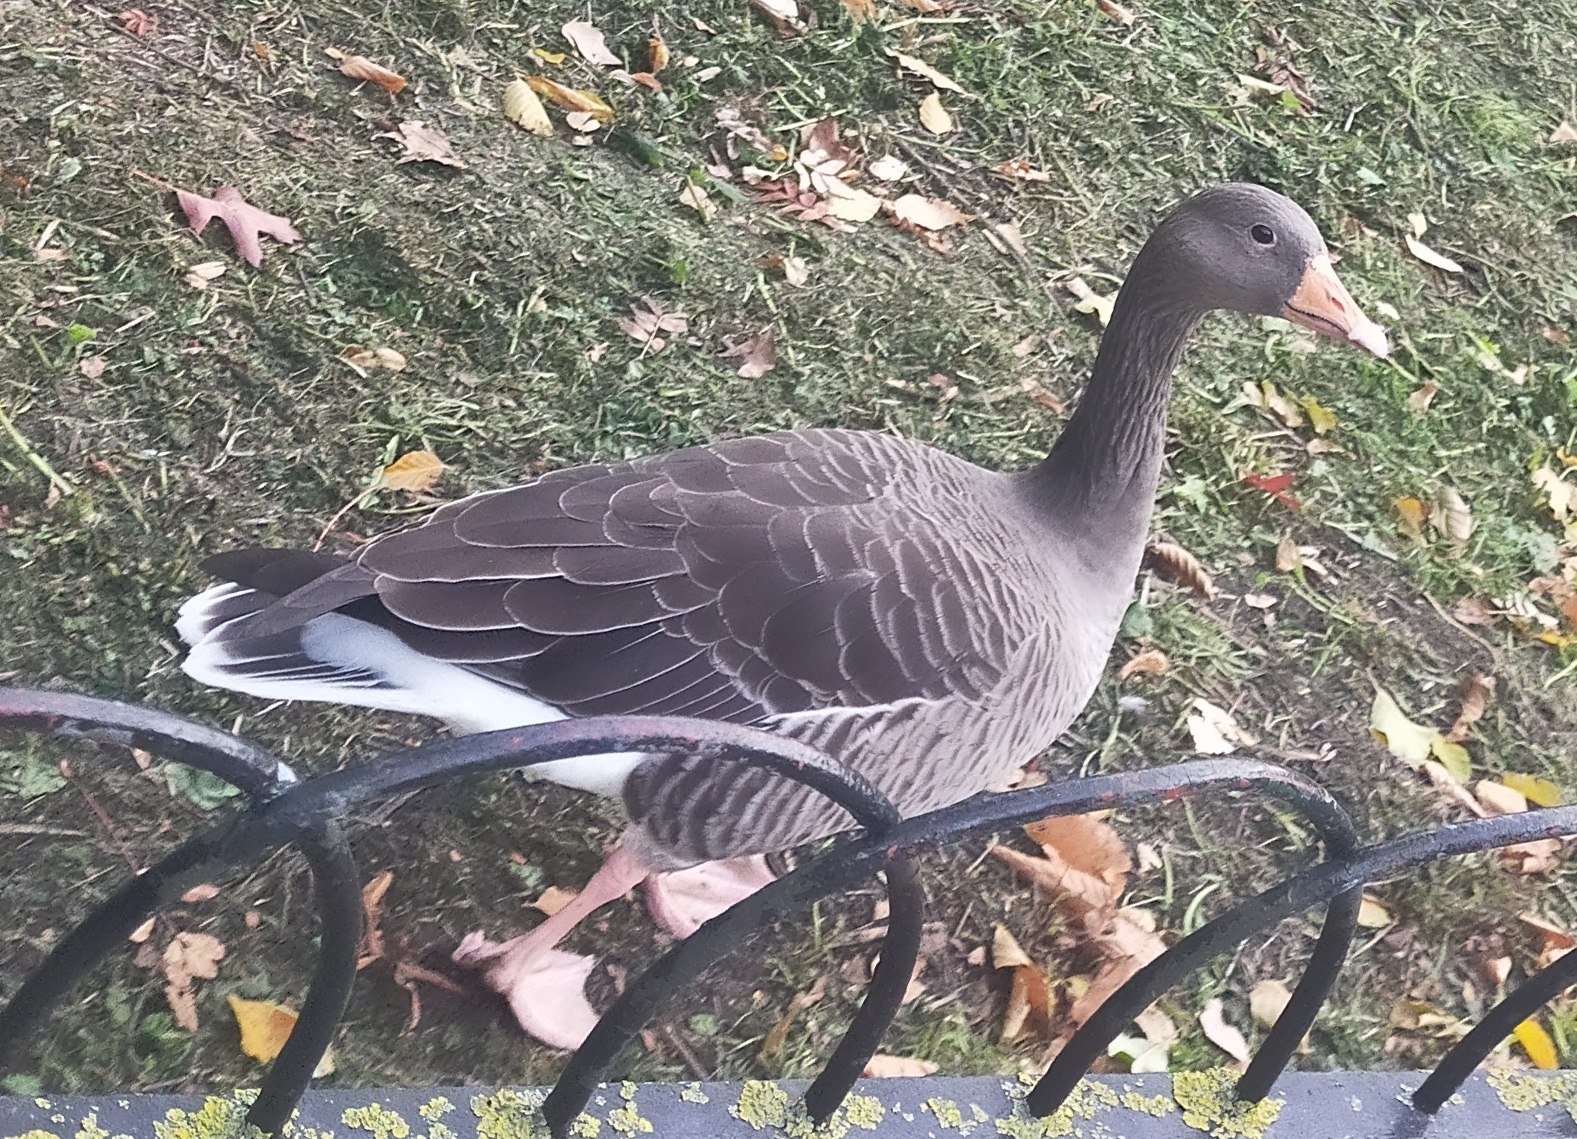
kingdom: Animalia
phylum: Chordata
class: Aves
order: Anseriformes
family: Anatidae
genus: Anser
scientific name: Anser anser
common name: Greylag goose
